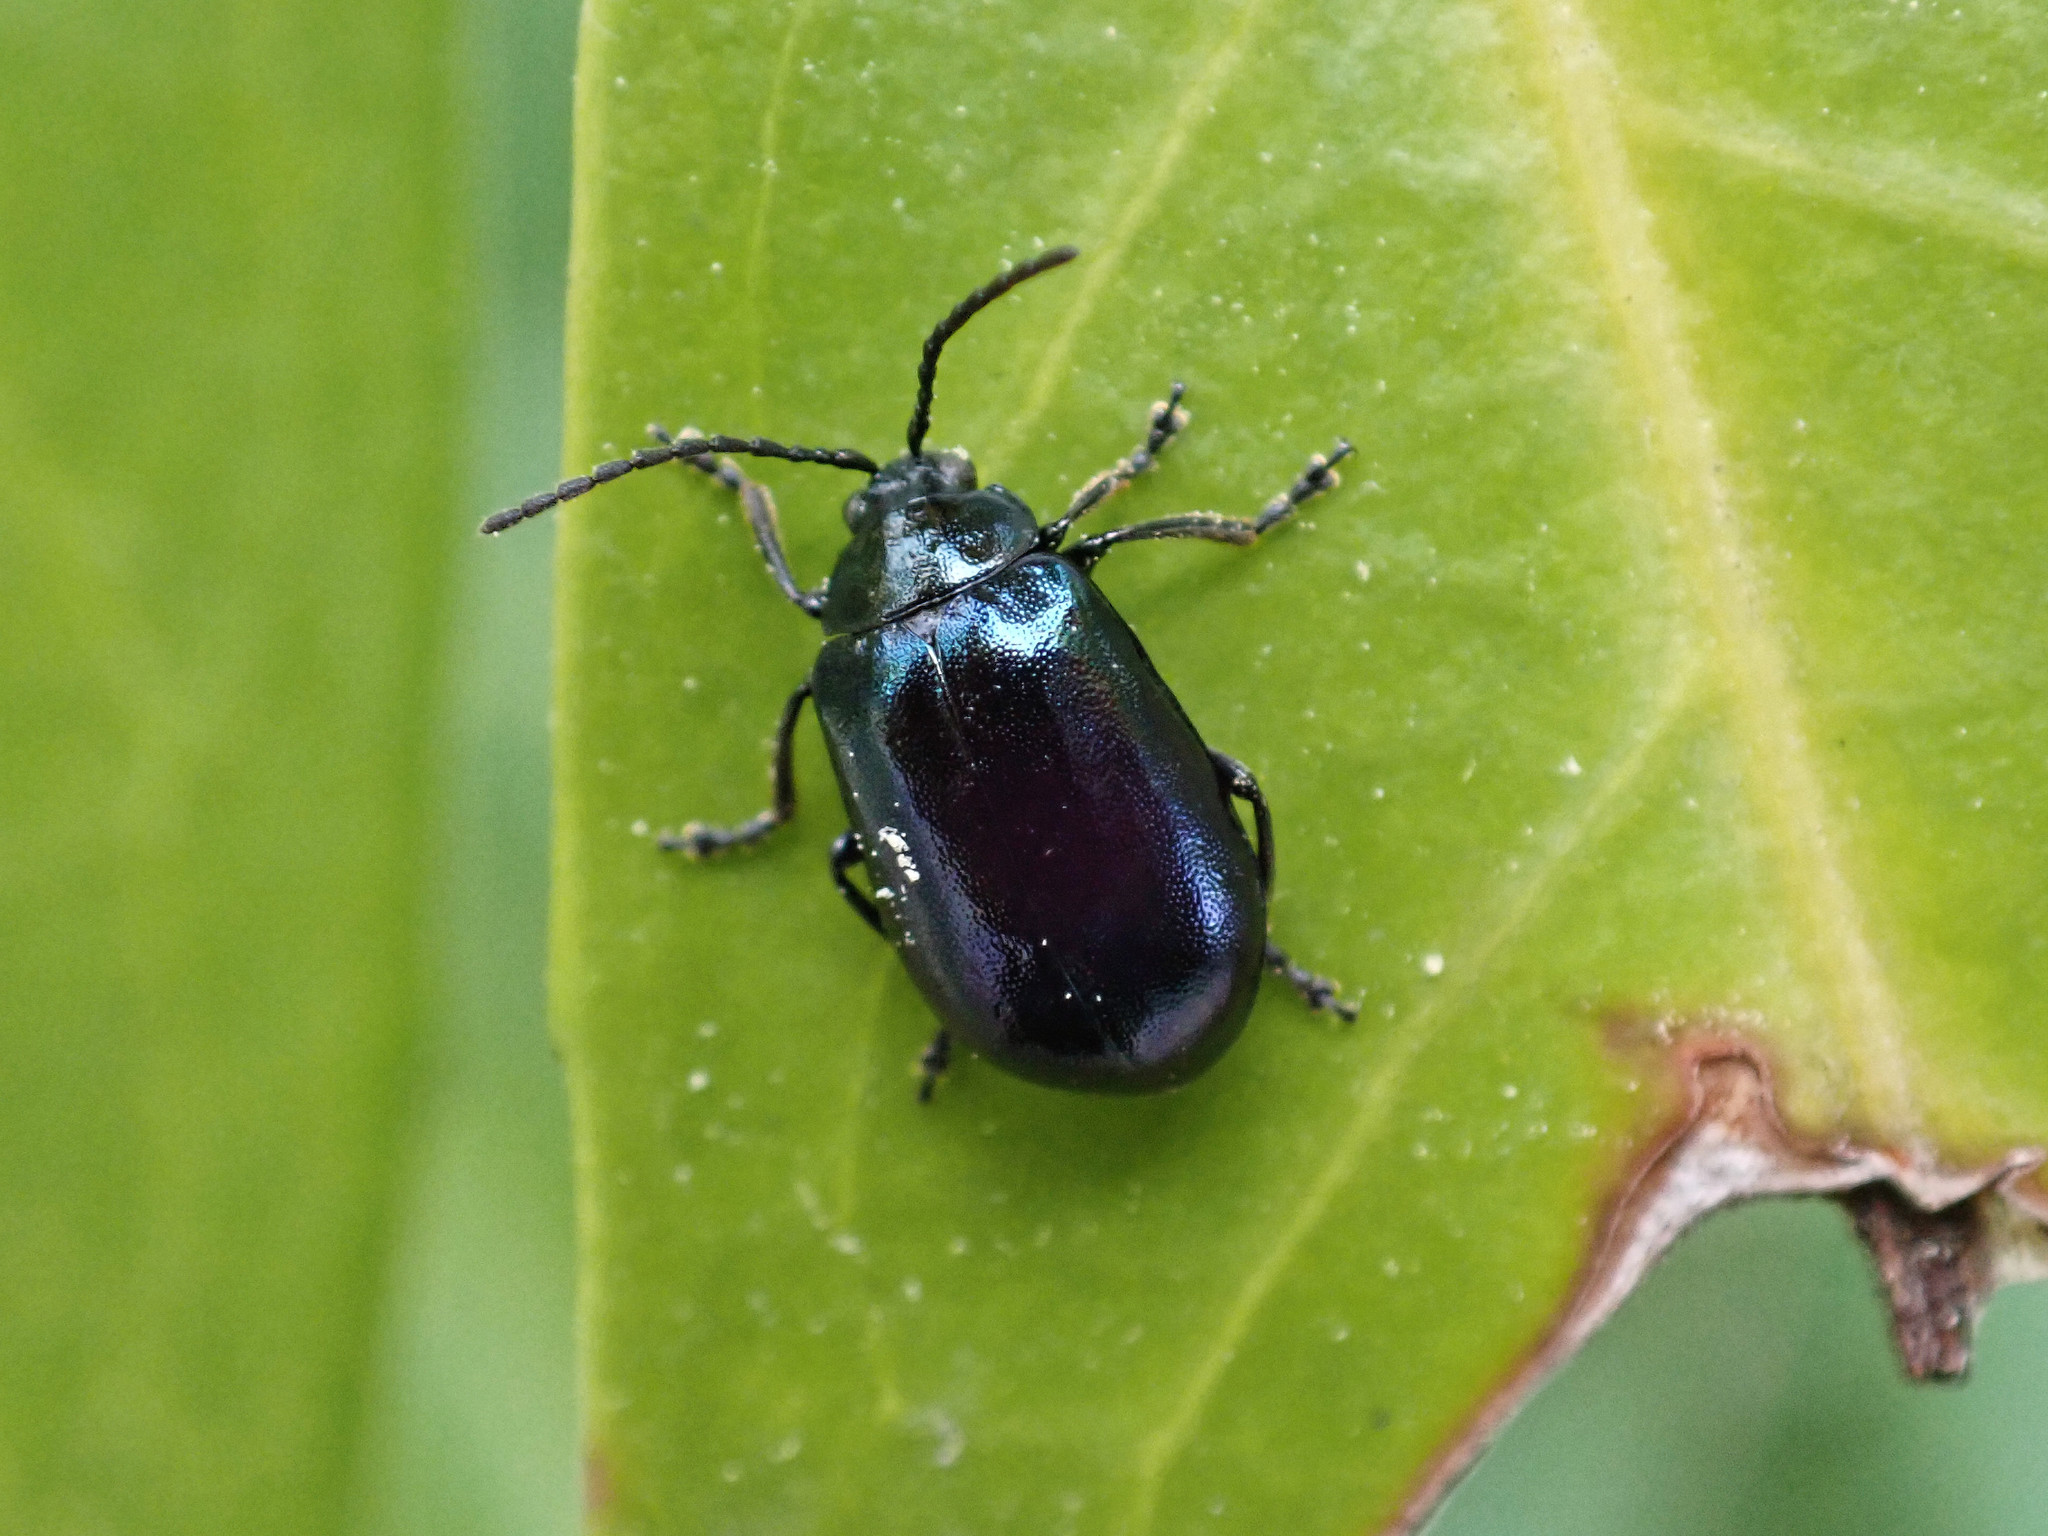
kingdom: Animalia
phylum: Arthropoda
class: Insecta
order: Coleoptera
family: Chrysomelidae
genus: Agelastica
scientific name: Agelastica alni
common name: Alder leaf beetle
